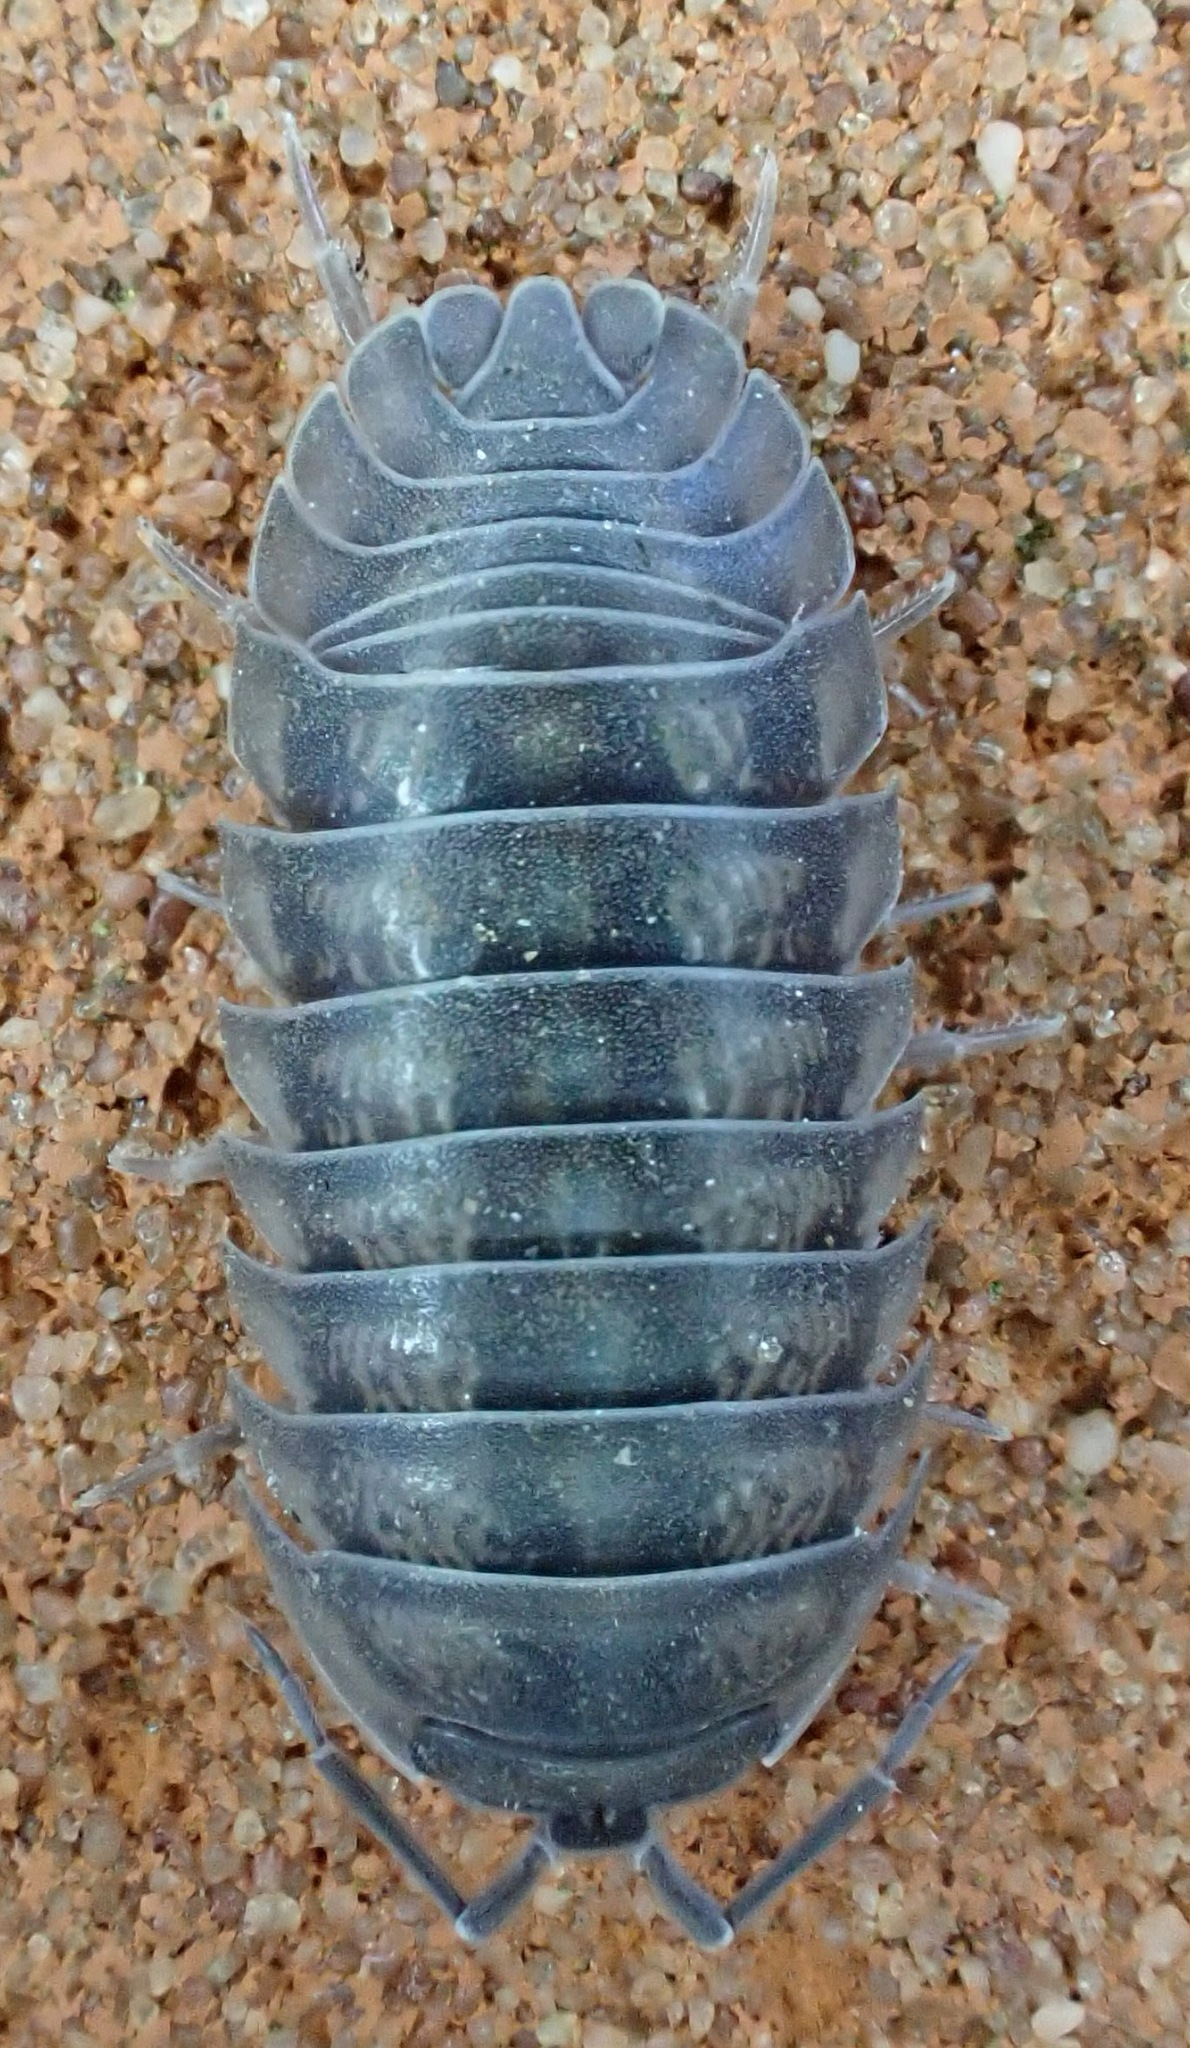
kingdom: Animalia
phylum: Arthropoda
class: Malacostraca
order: Isopoda
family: Armadillidiidae
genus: Armadillidium
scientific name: Armadillidium nasatum
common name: Isopod
